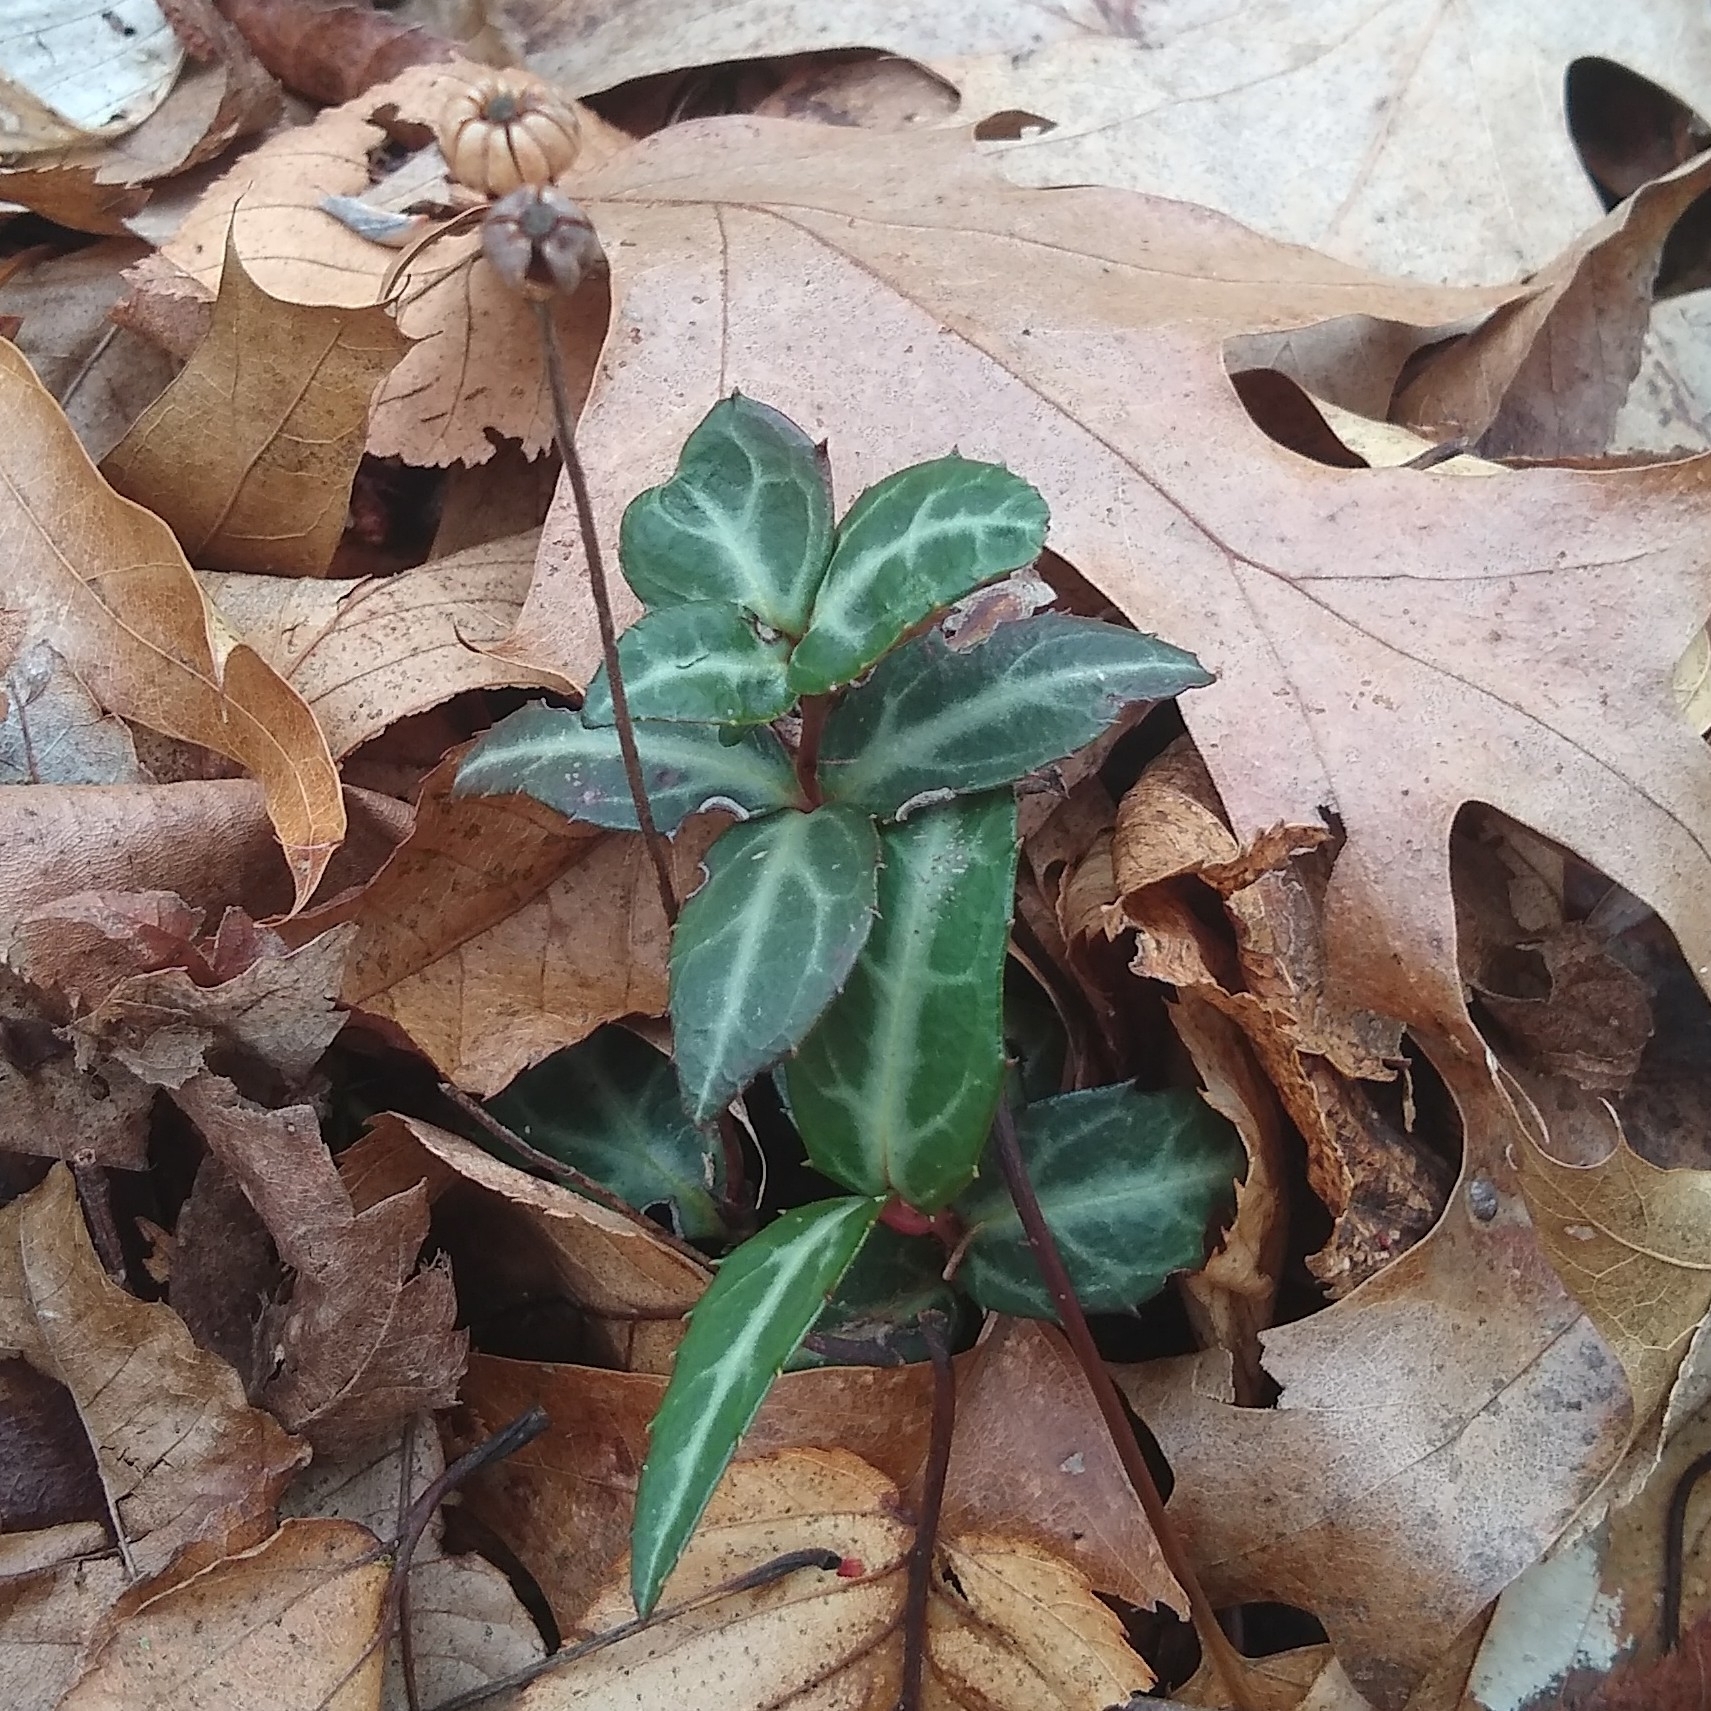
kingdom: Plantae
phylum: Tracheophyta
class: Magnoliopsida
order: Ericales
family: Ericaceae
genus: Chimaphila
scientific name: Chimaphila maculata
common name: Spotted pipsissewa
